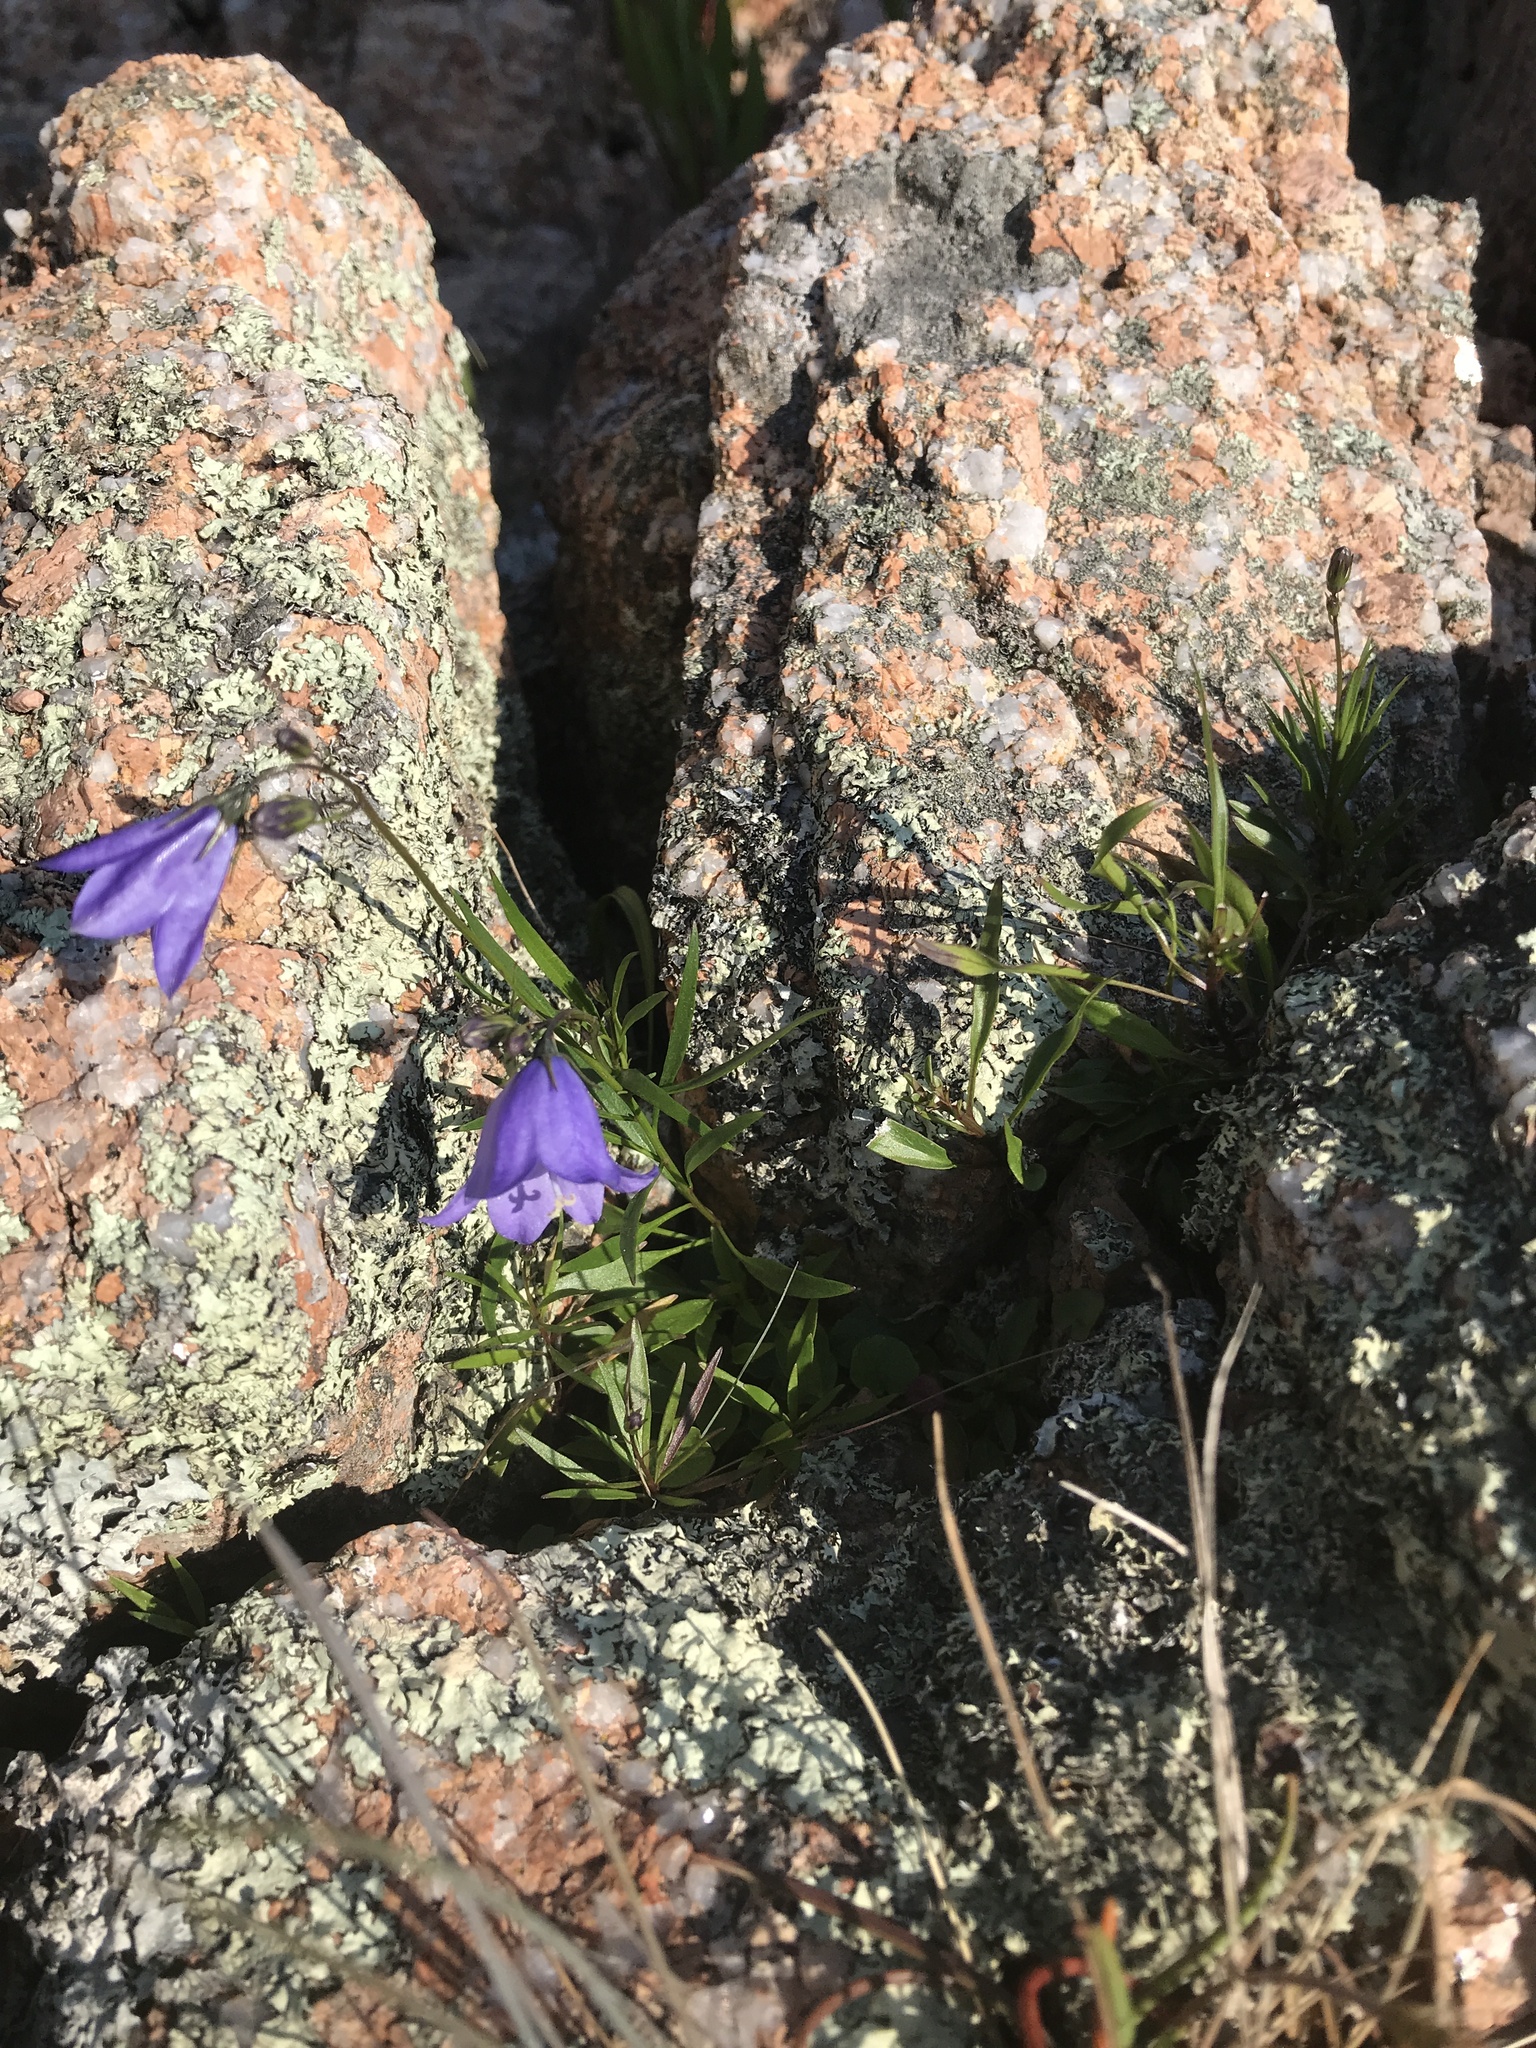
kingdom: Plantae
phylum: Tracheophyta
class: Magnoliopsida
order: Asterales
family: Campanulaceae
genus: Campanula
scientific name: Campanula intercedens
